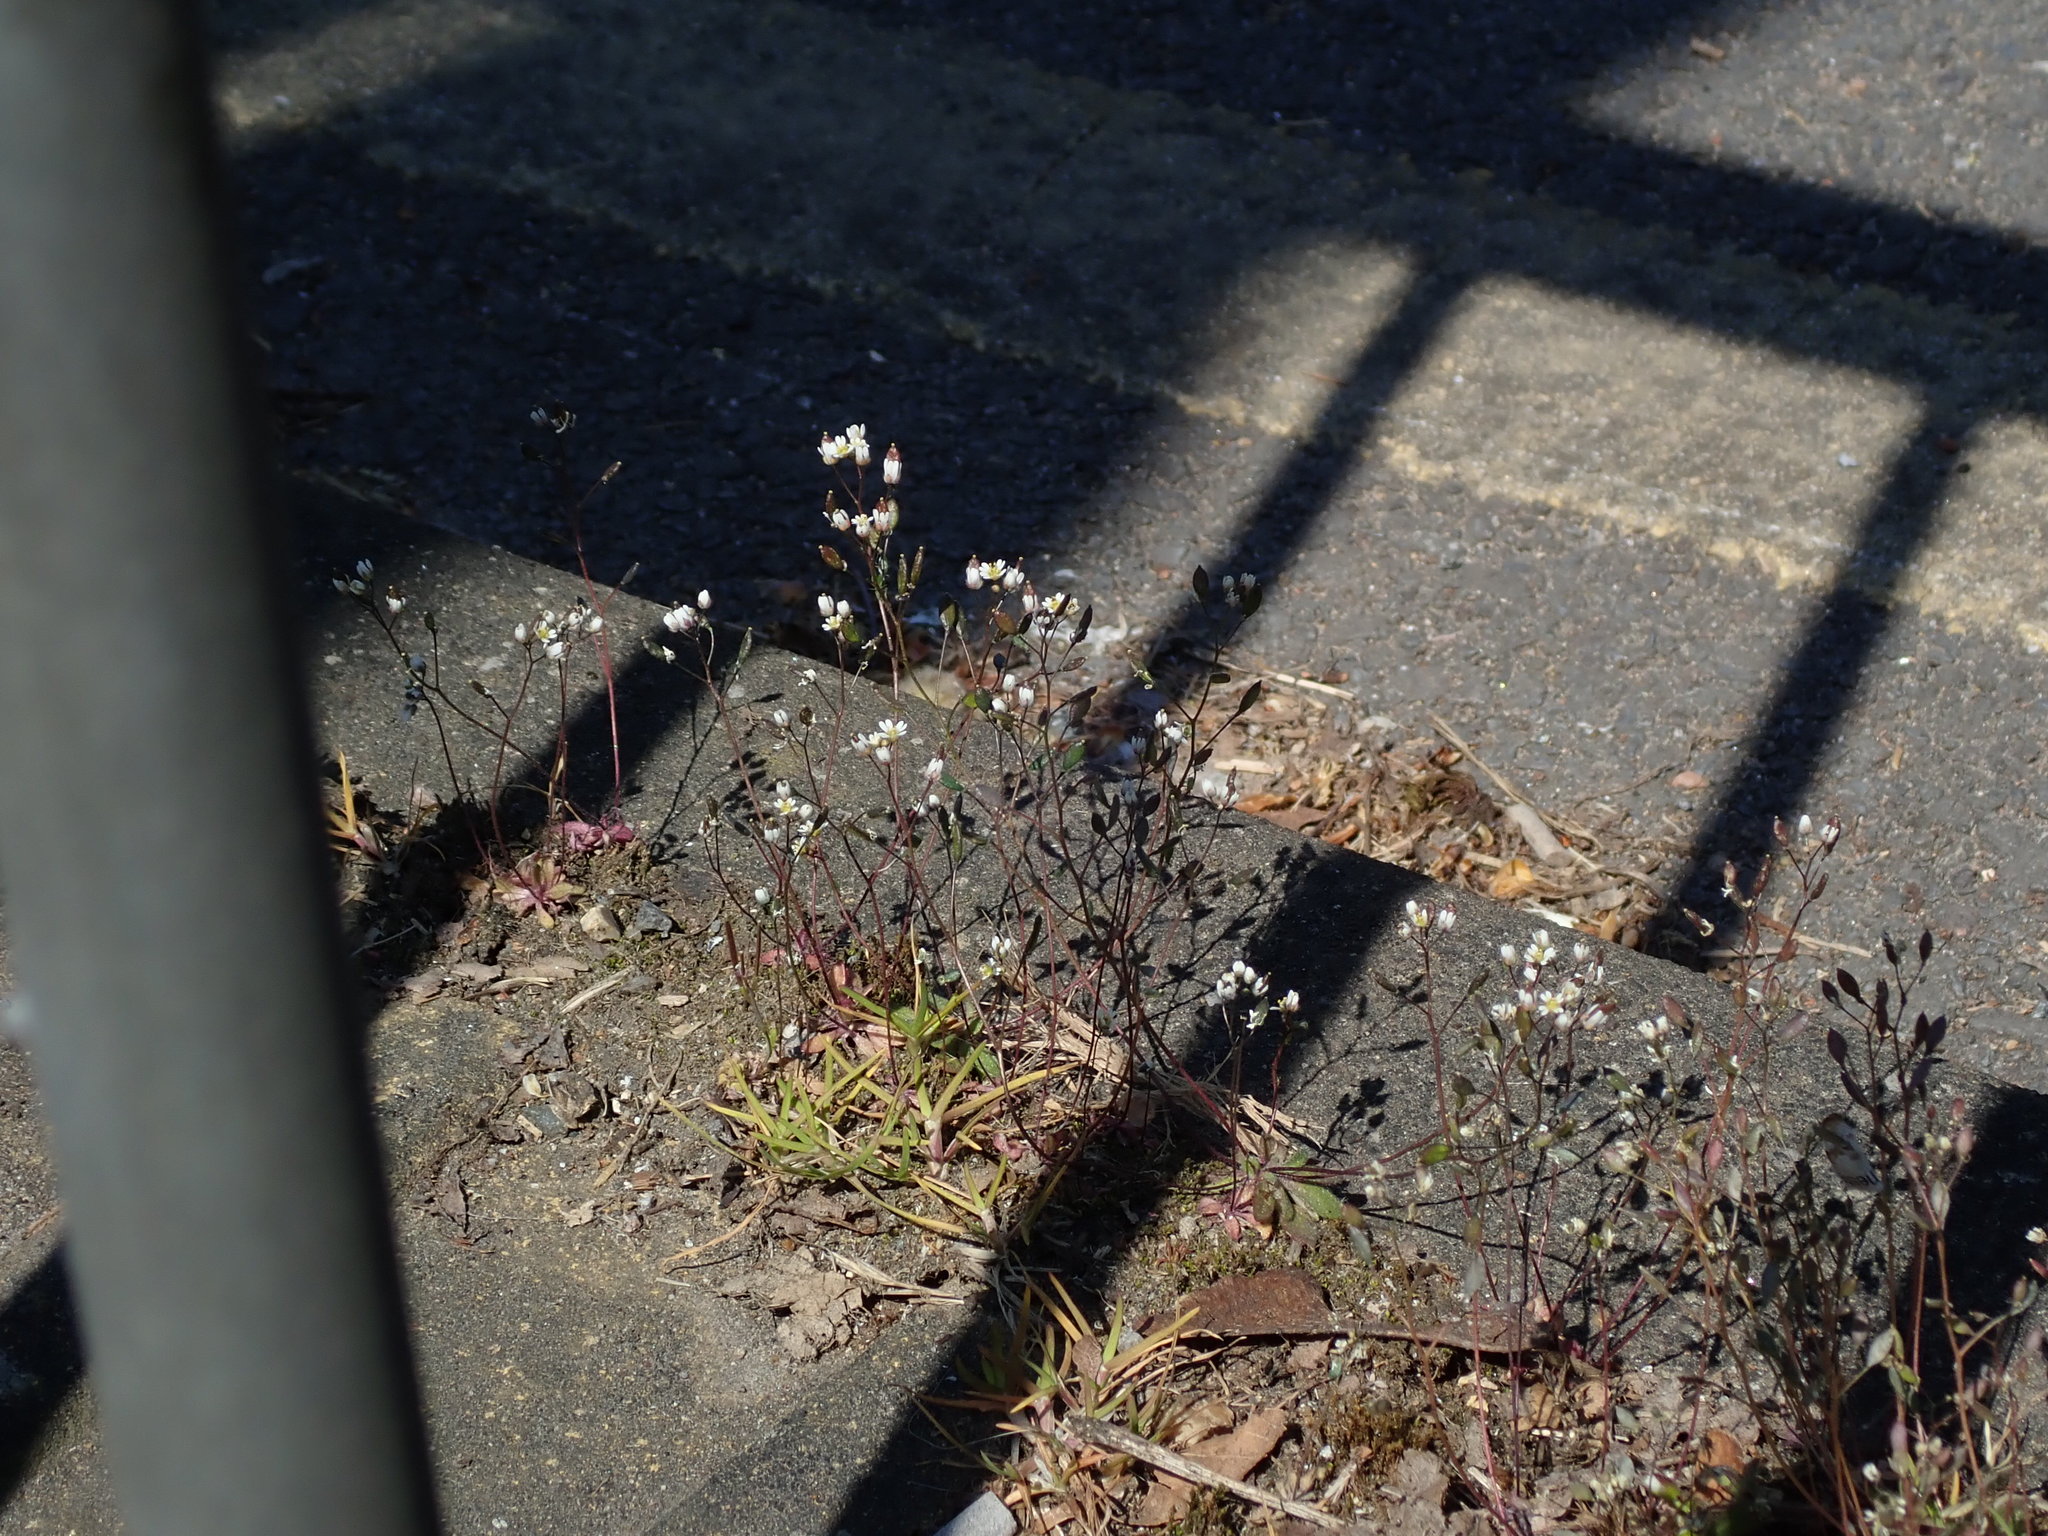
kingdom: Plantae
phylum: Tracheophyta
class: Magnoliopsida
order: Brassicales
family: Brassicaceae
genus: Draba
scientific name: Draba verna
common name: Spring draba
